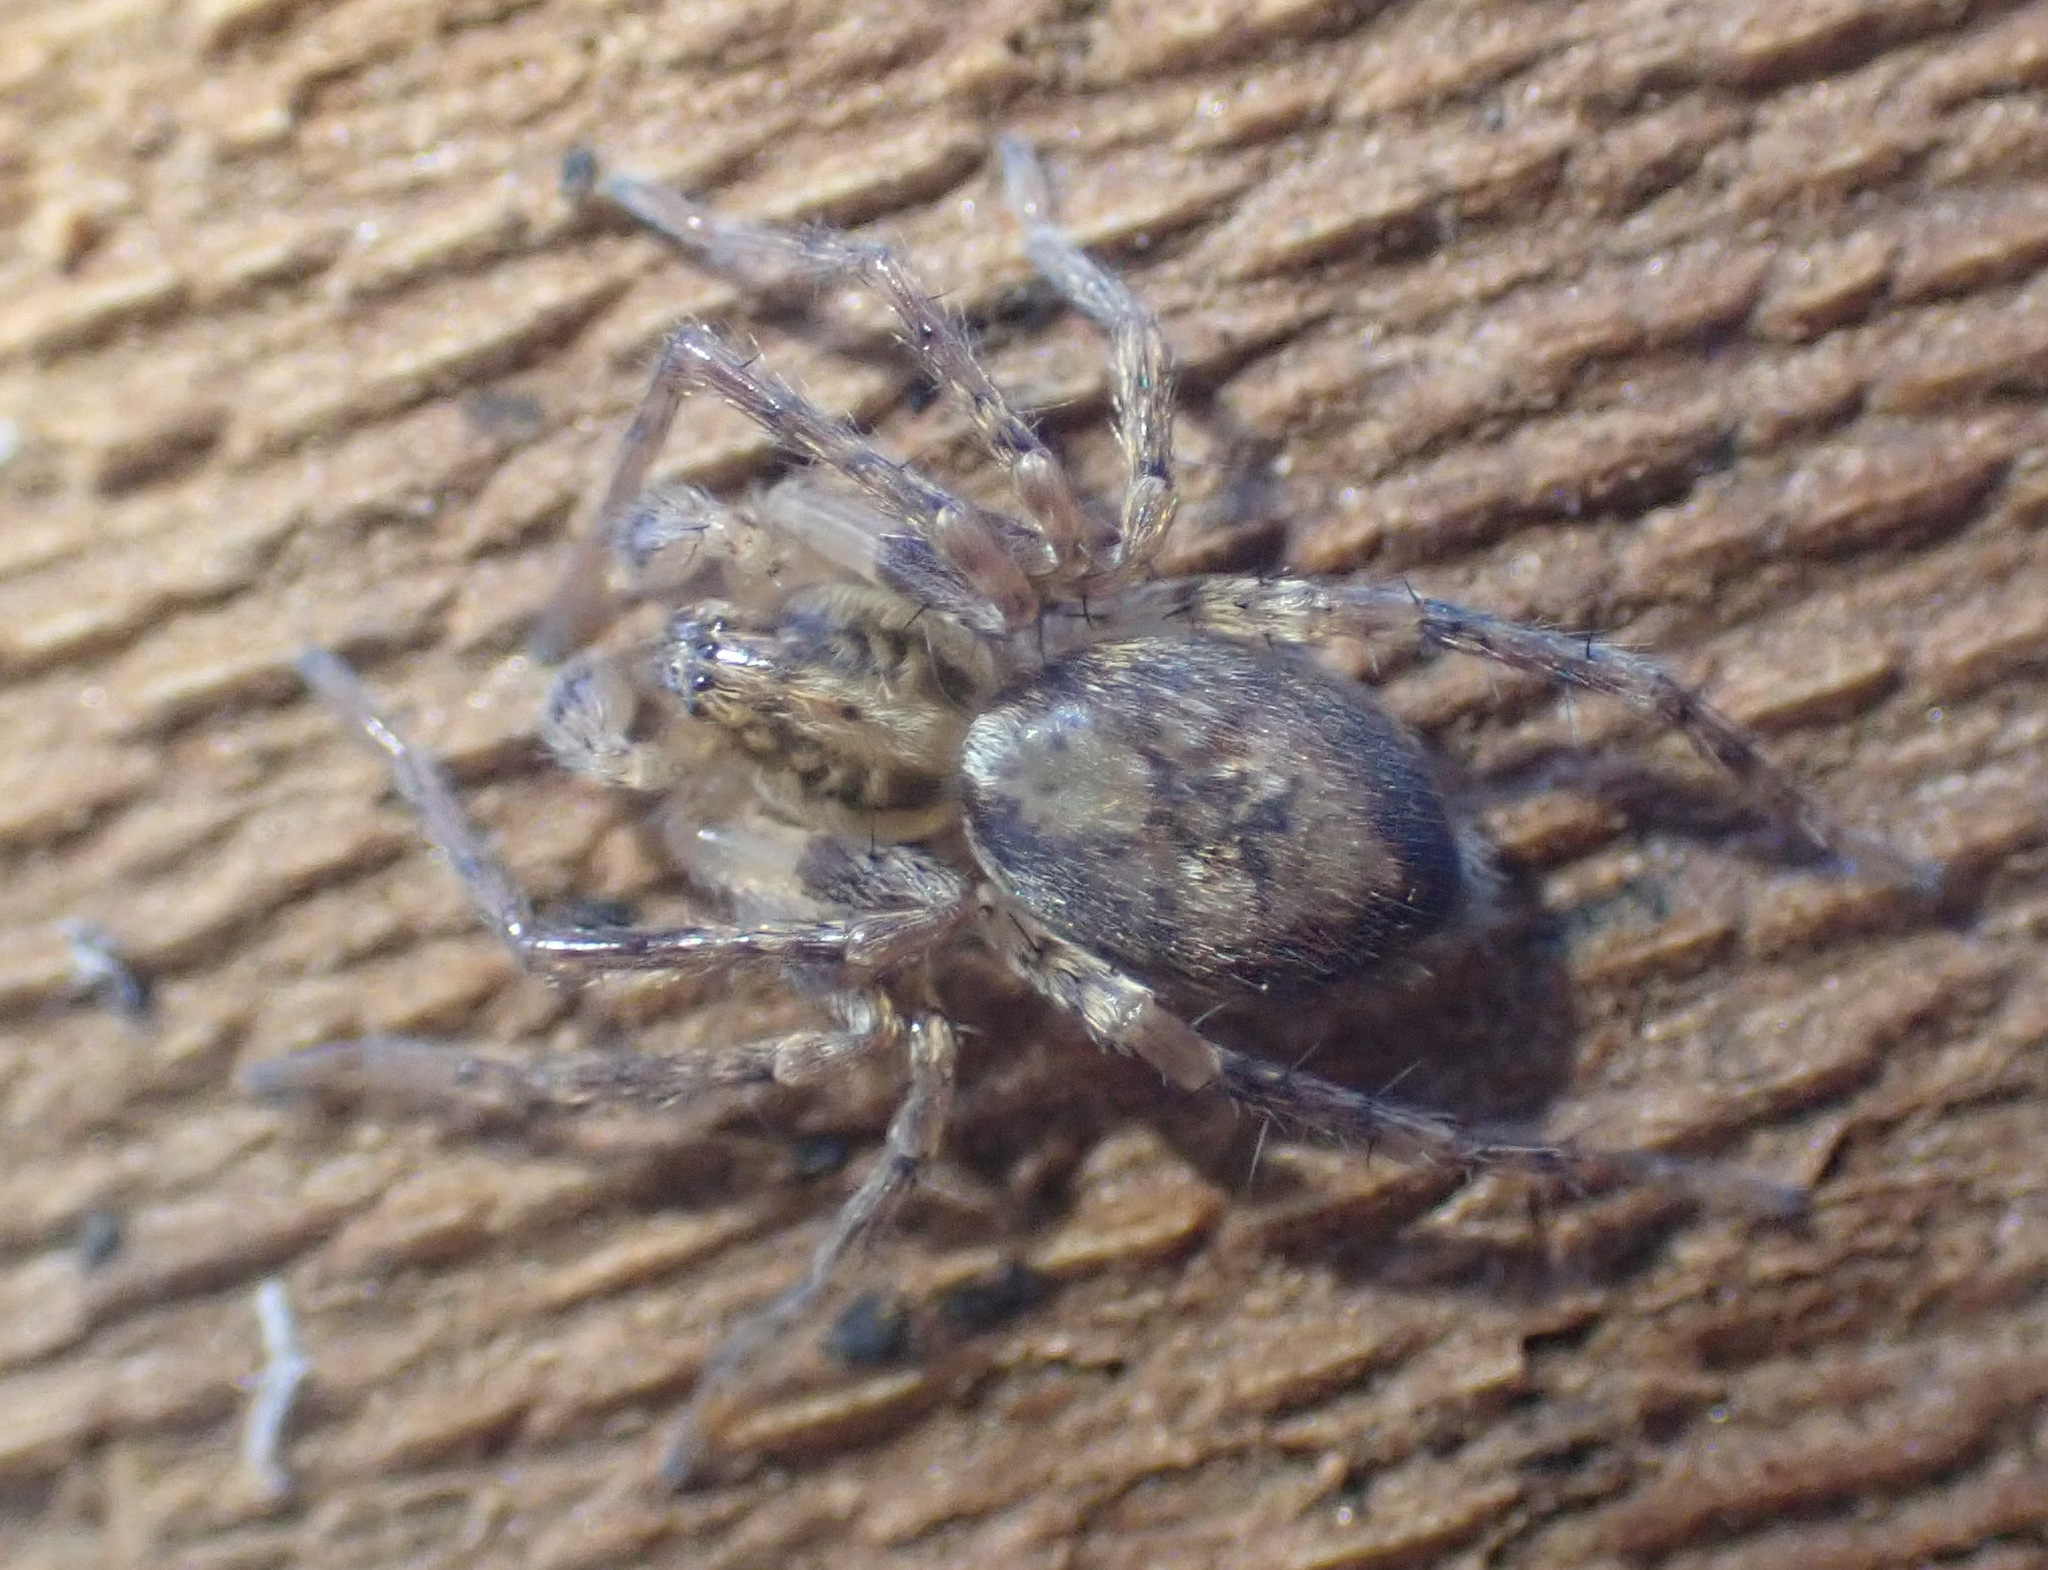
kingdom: Animalia
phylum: Arthropoda
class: Arachnida
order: Araneae
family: Anyphaenidae
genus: Anyphaena
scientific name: Anyphaena accentuata
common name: Buzzing spider
